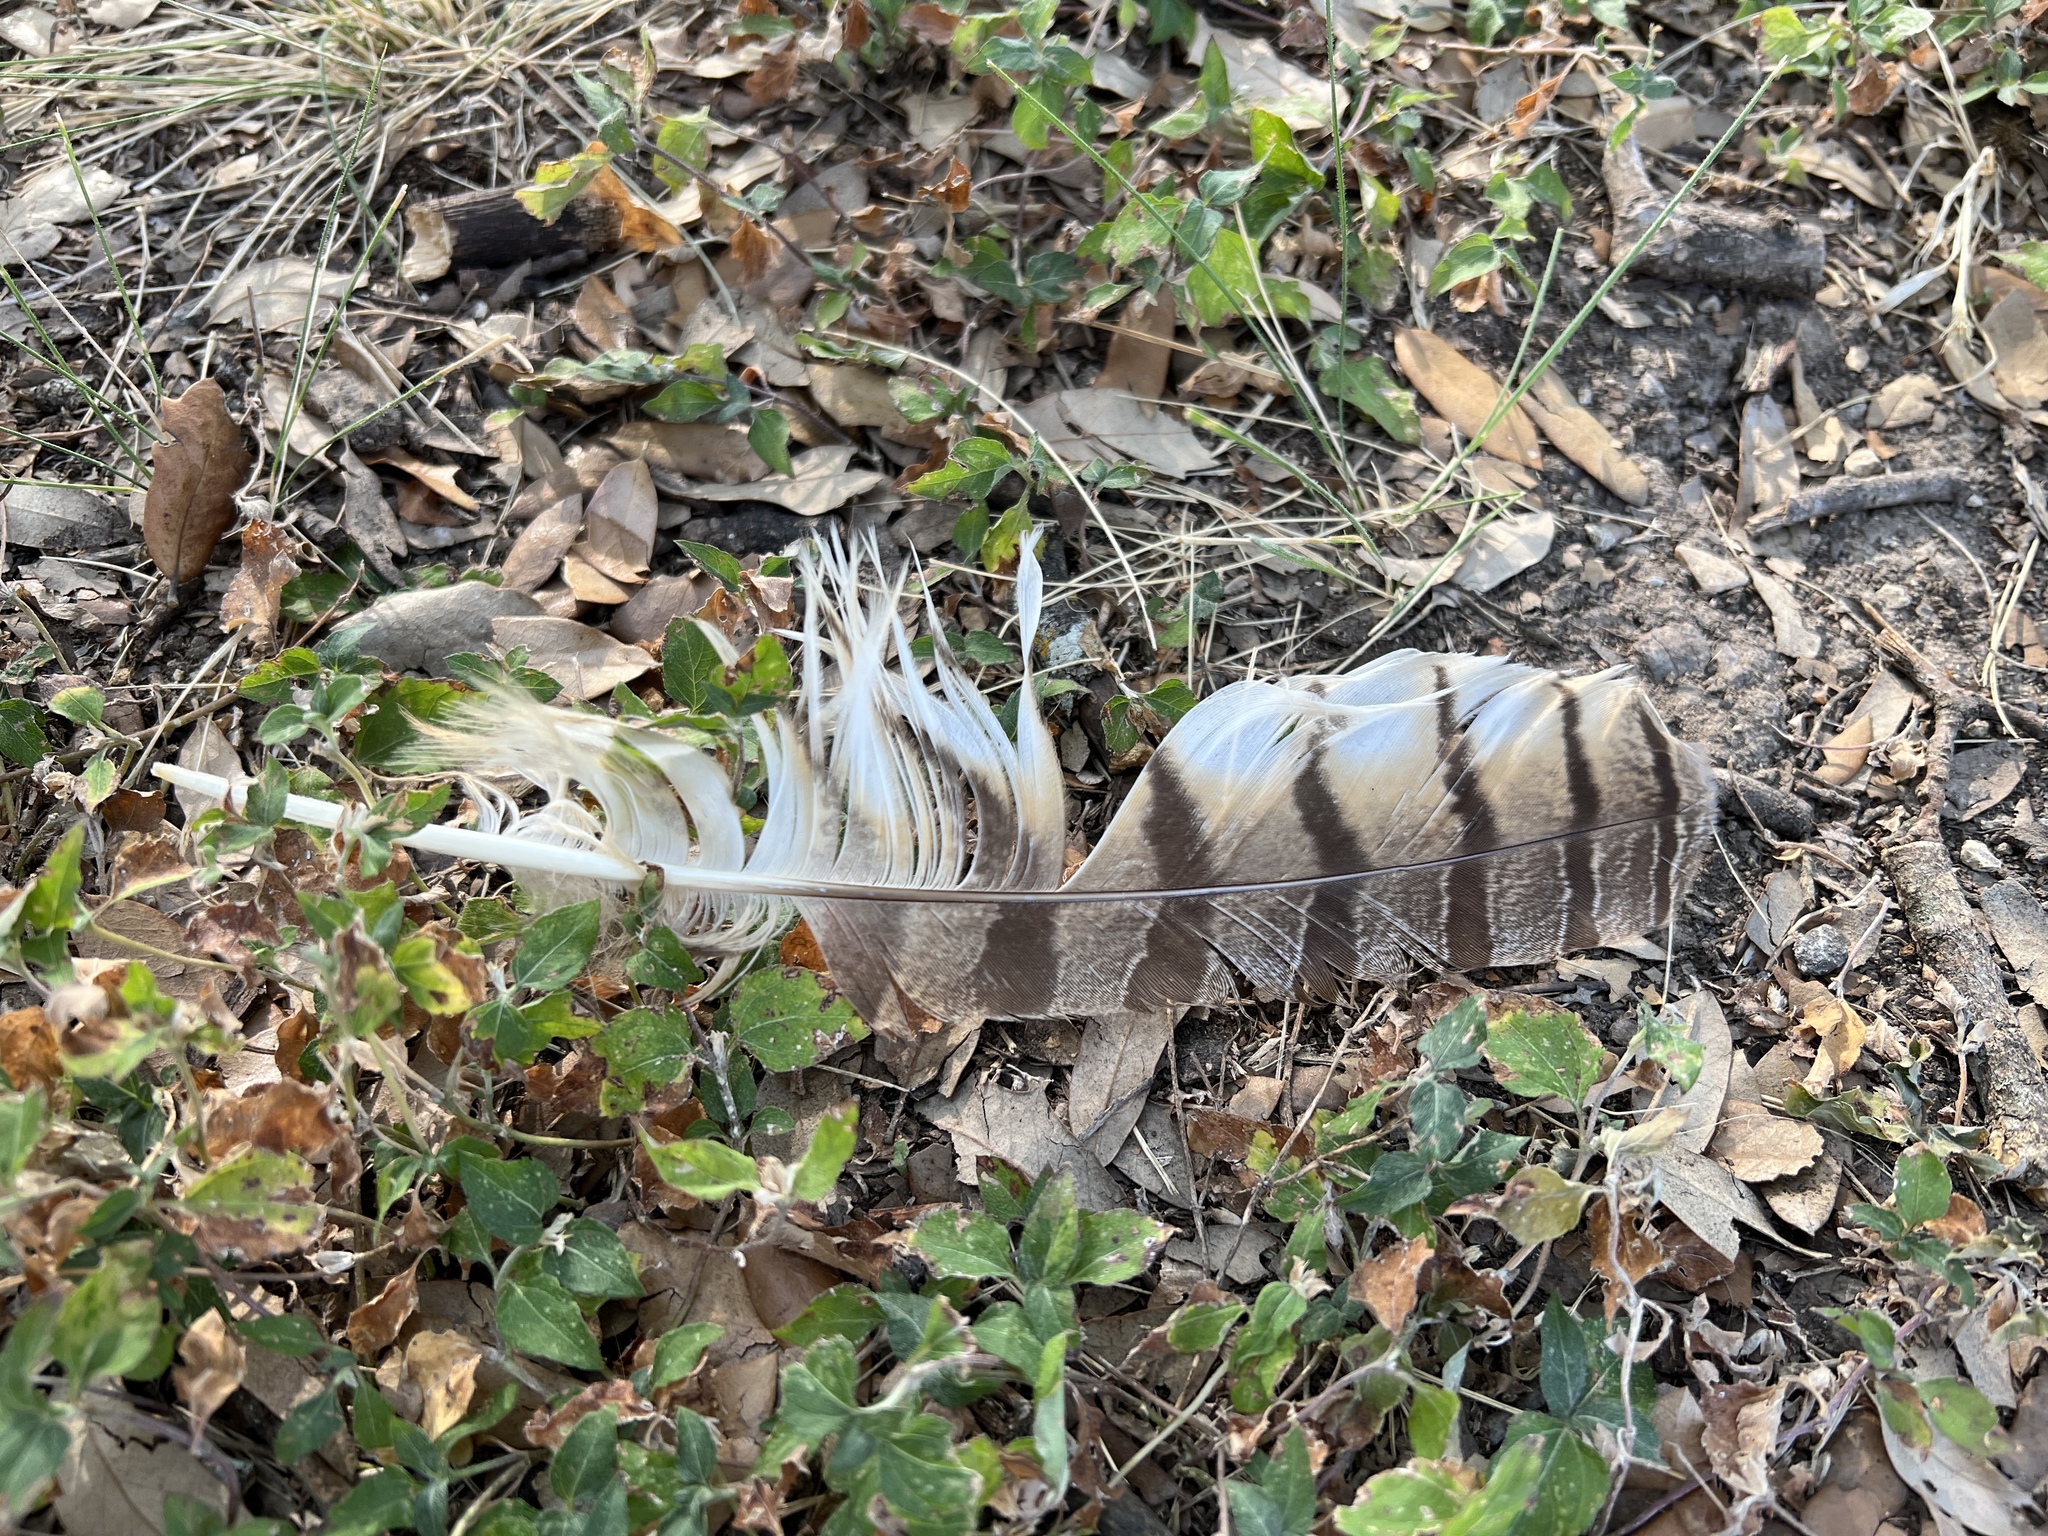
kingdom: Animalia
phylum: Chordata
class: Aves
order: Strigiformes
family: Strigidae
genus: Bubo
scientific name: Bubo virginianus
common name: Great horned owl
